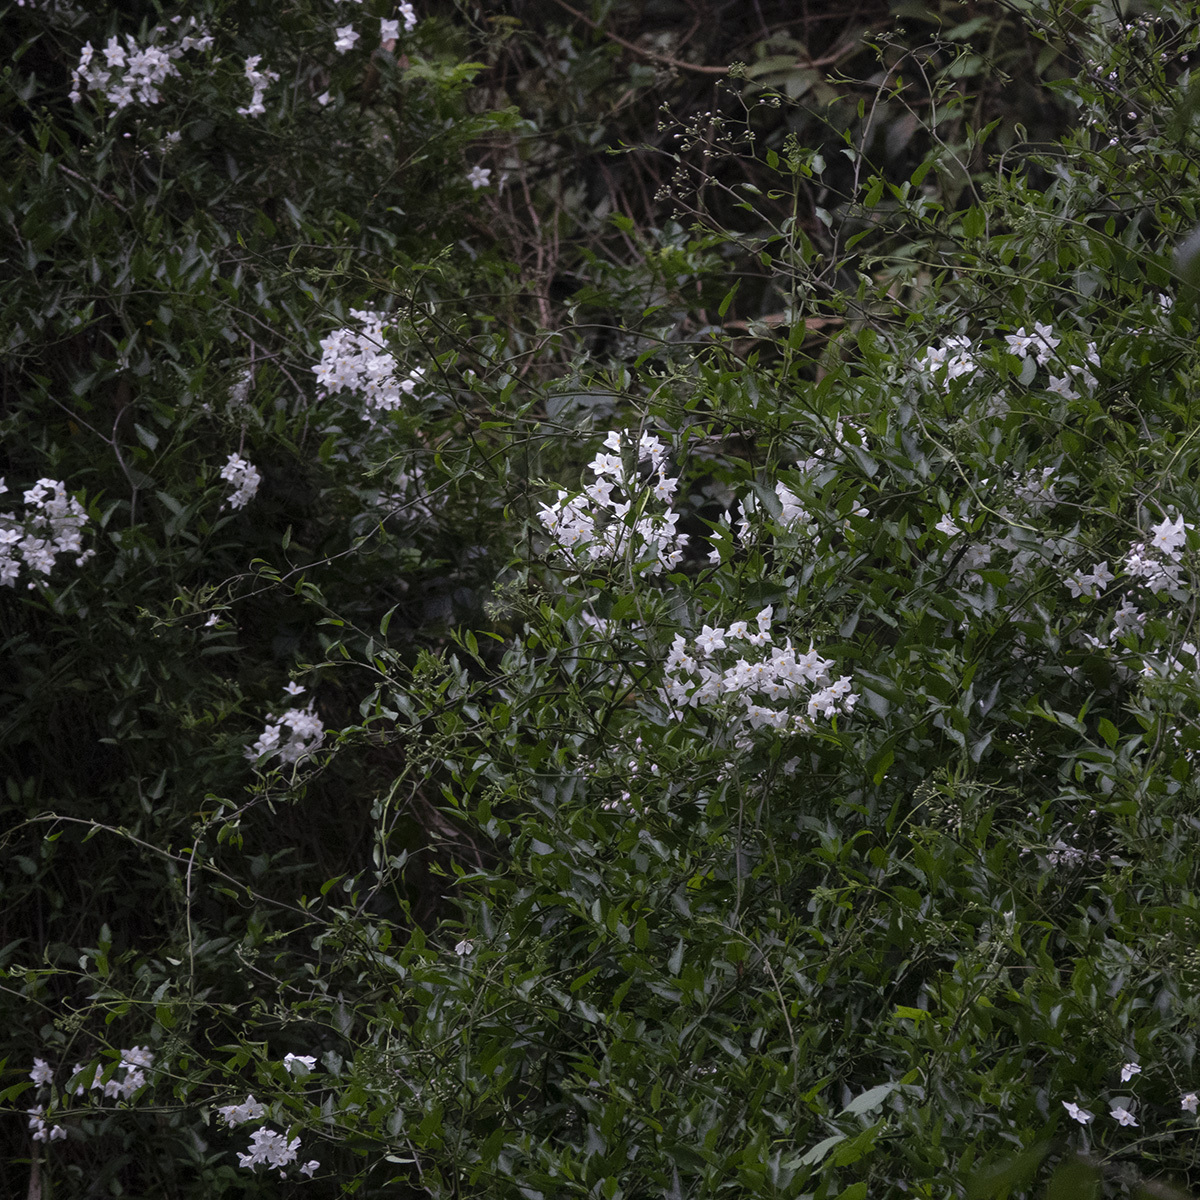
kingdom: Plantae
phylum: Tracheophyta
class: Magnoliopsida
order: Solanales
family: Solanaceae
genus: Solanum
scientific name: Solanum laxum
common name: Nightshade
